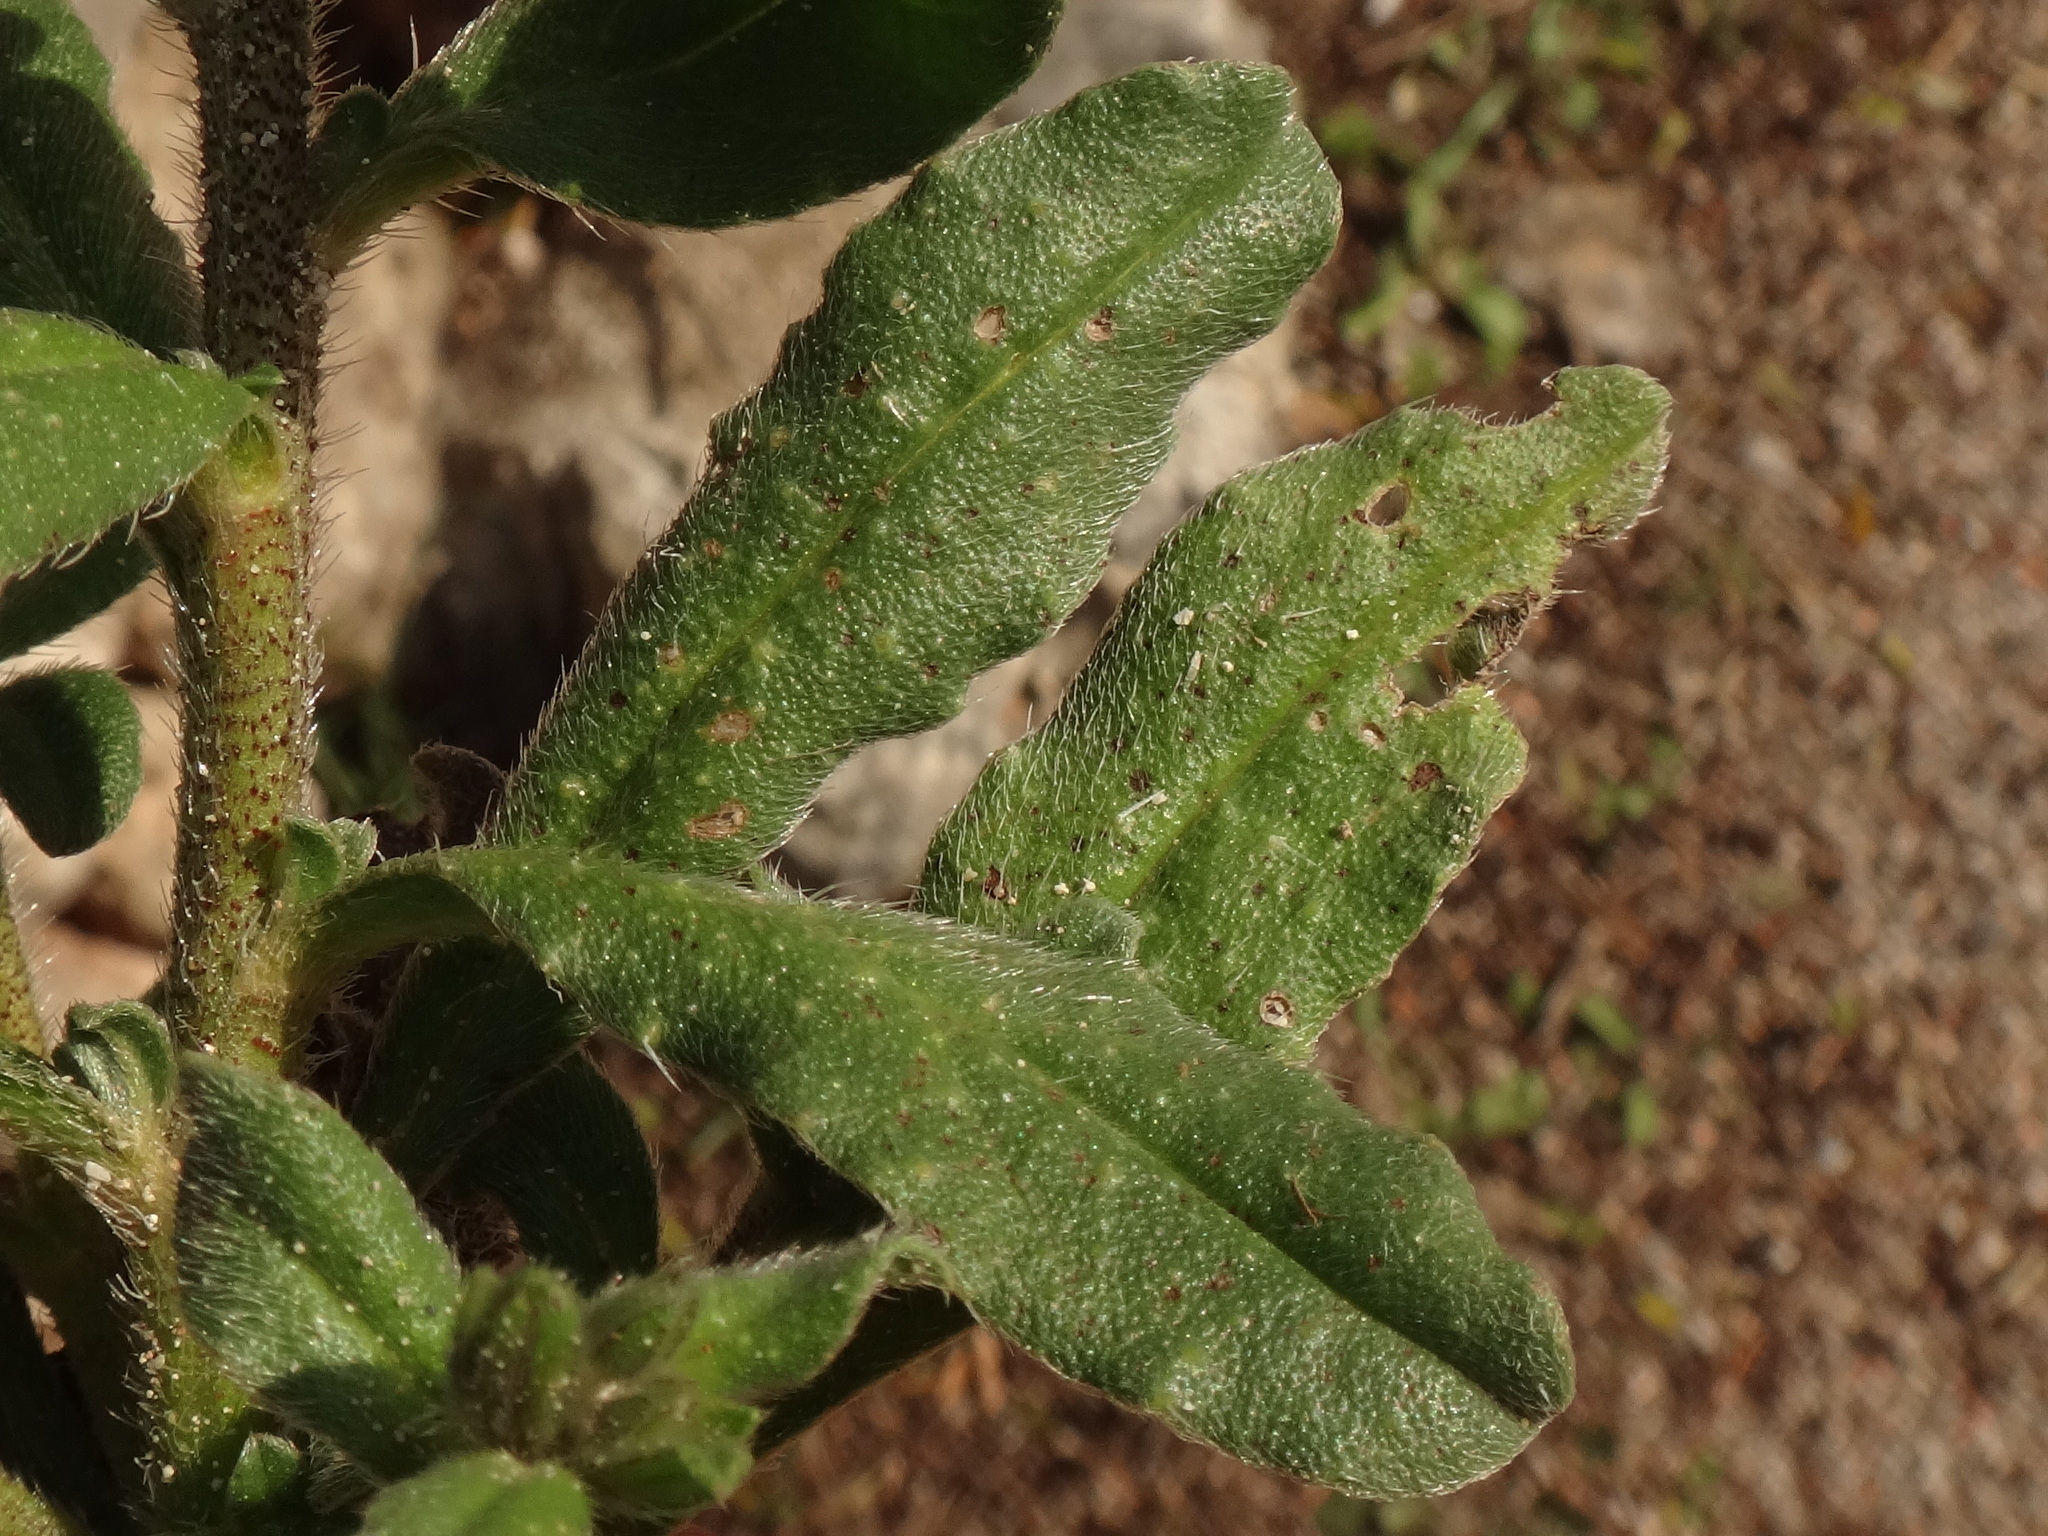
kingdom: Plantae
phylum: Tracheophyta
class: Magnoliopsida
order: Boraginales
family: Boraginaceae
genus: Echium
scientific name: Echium parviflorum
